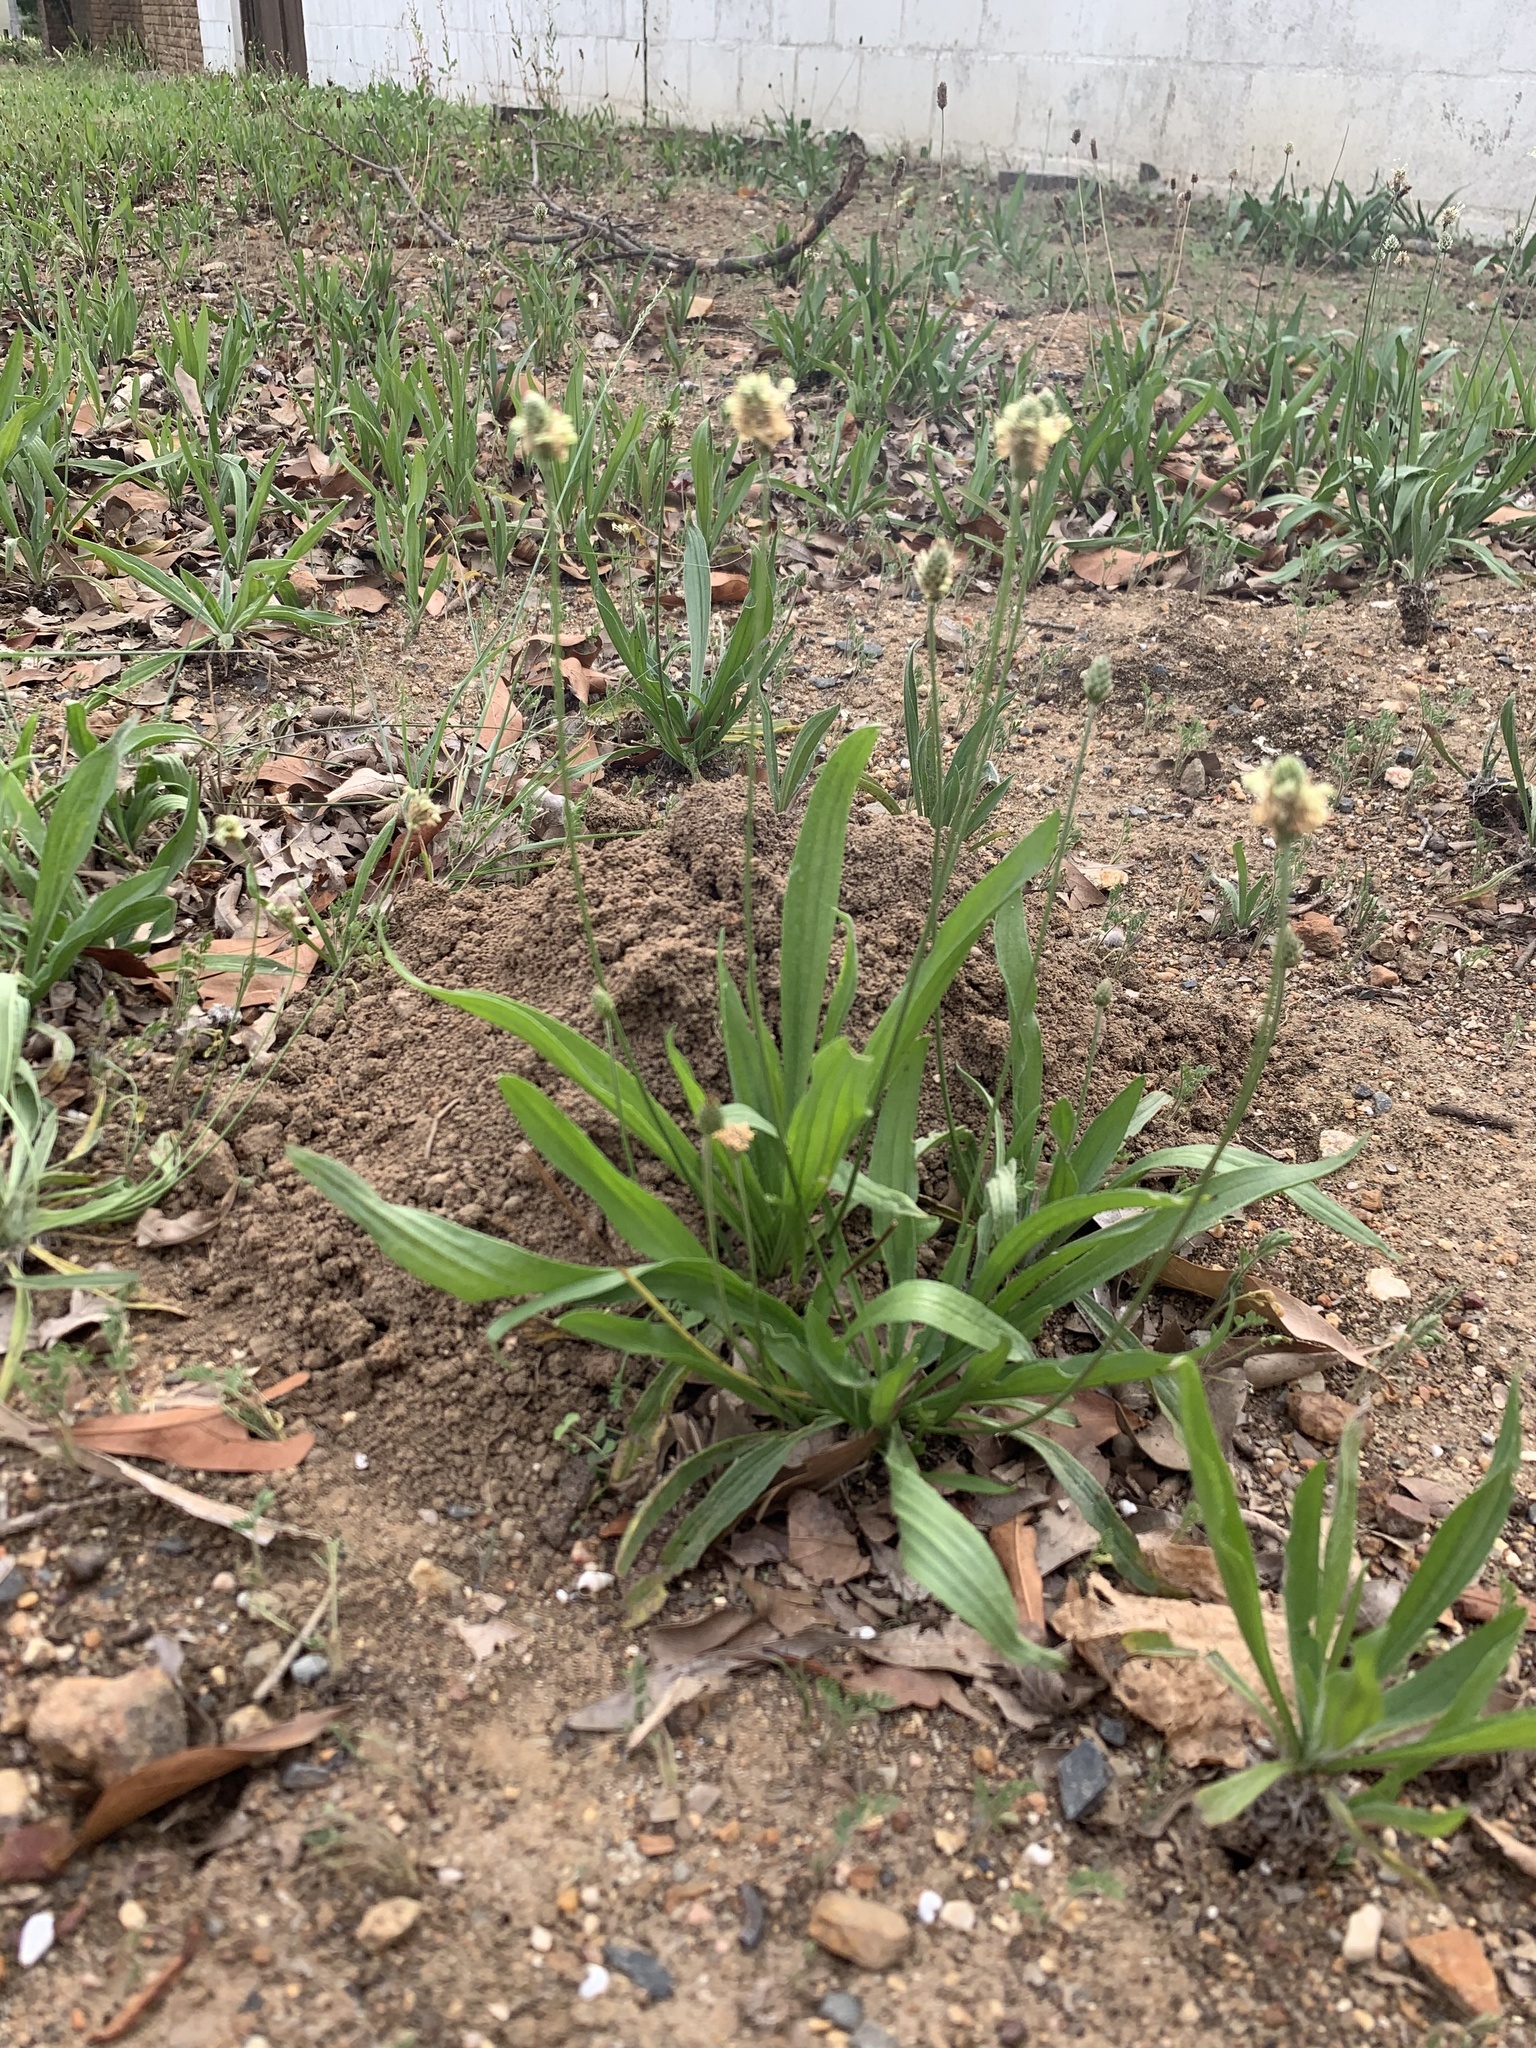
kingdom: Plantae
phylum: Tracheophyta
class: Magnoliopsida
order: Lamiales
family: Plantaginaceae
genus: Plantago
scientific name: Plantago lanceolata
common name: Ribwort plantain
